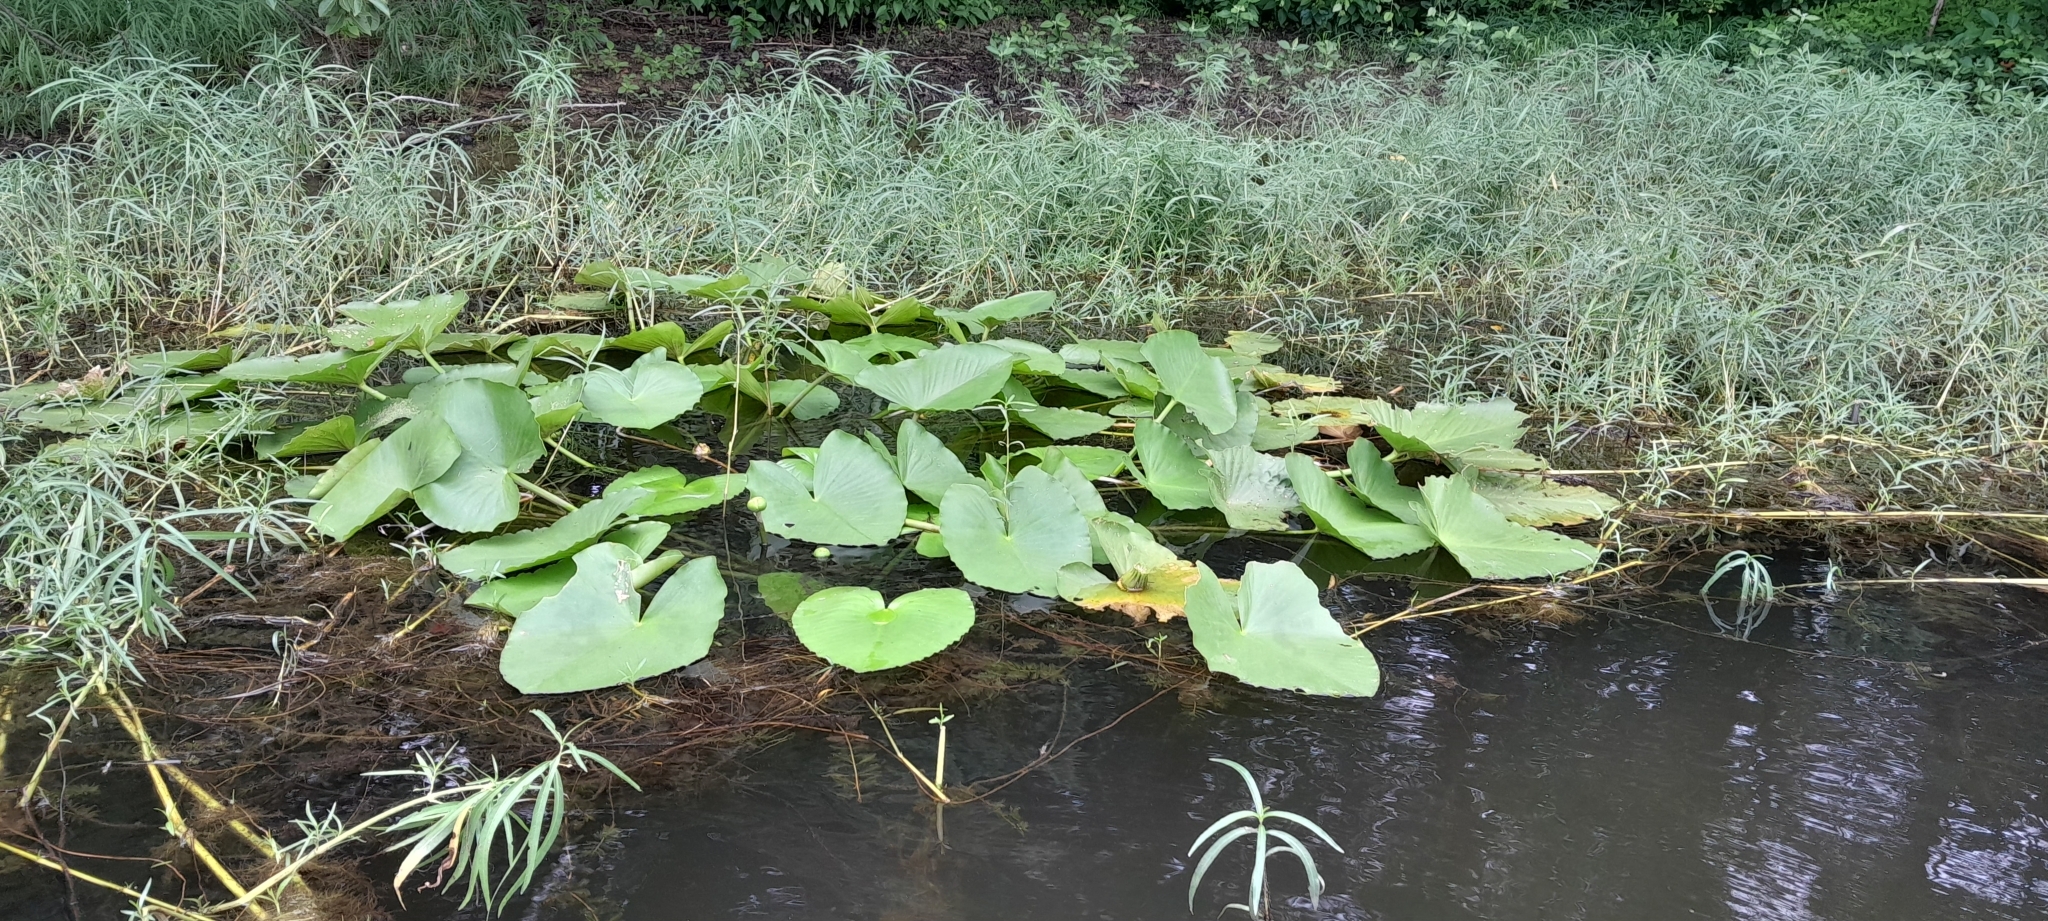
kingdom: Plantae
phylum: Tracheophyta
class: Magnoliopsida
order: Nymphaeales
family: Nymphaeaceae
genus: Nuphar
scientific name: Nuphar advena
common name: Spatter-dock
